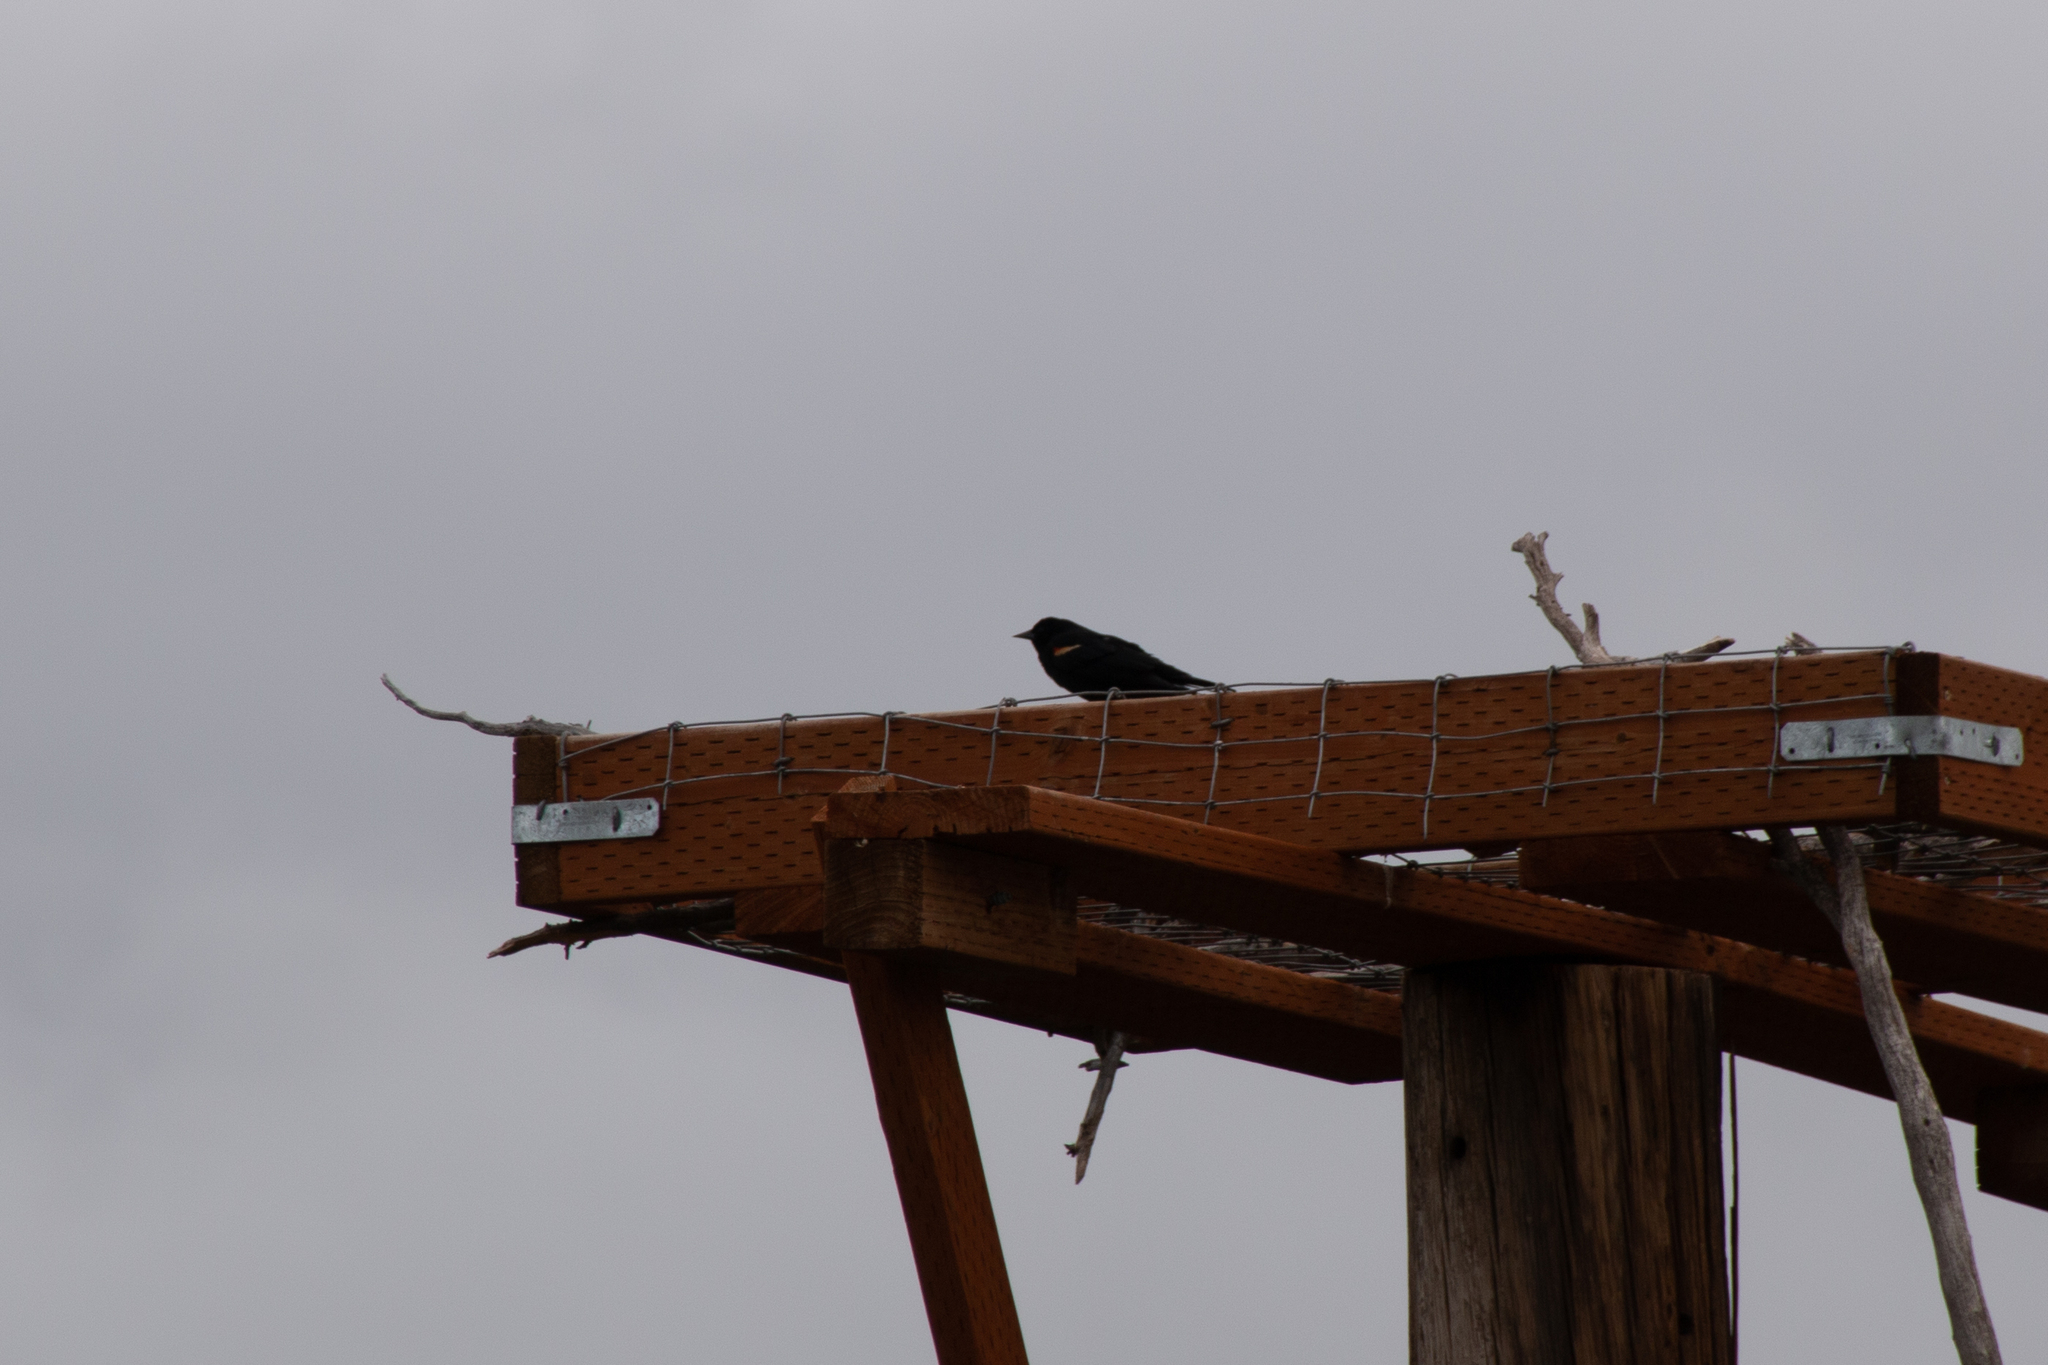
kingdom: Animalia
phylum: Chordata
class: Aves
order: Passeriformes
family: Icteridae
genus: Agelaius
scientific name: Agelaius phoeniceus
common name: Red-winged blackbird
